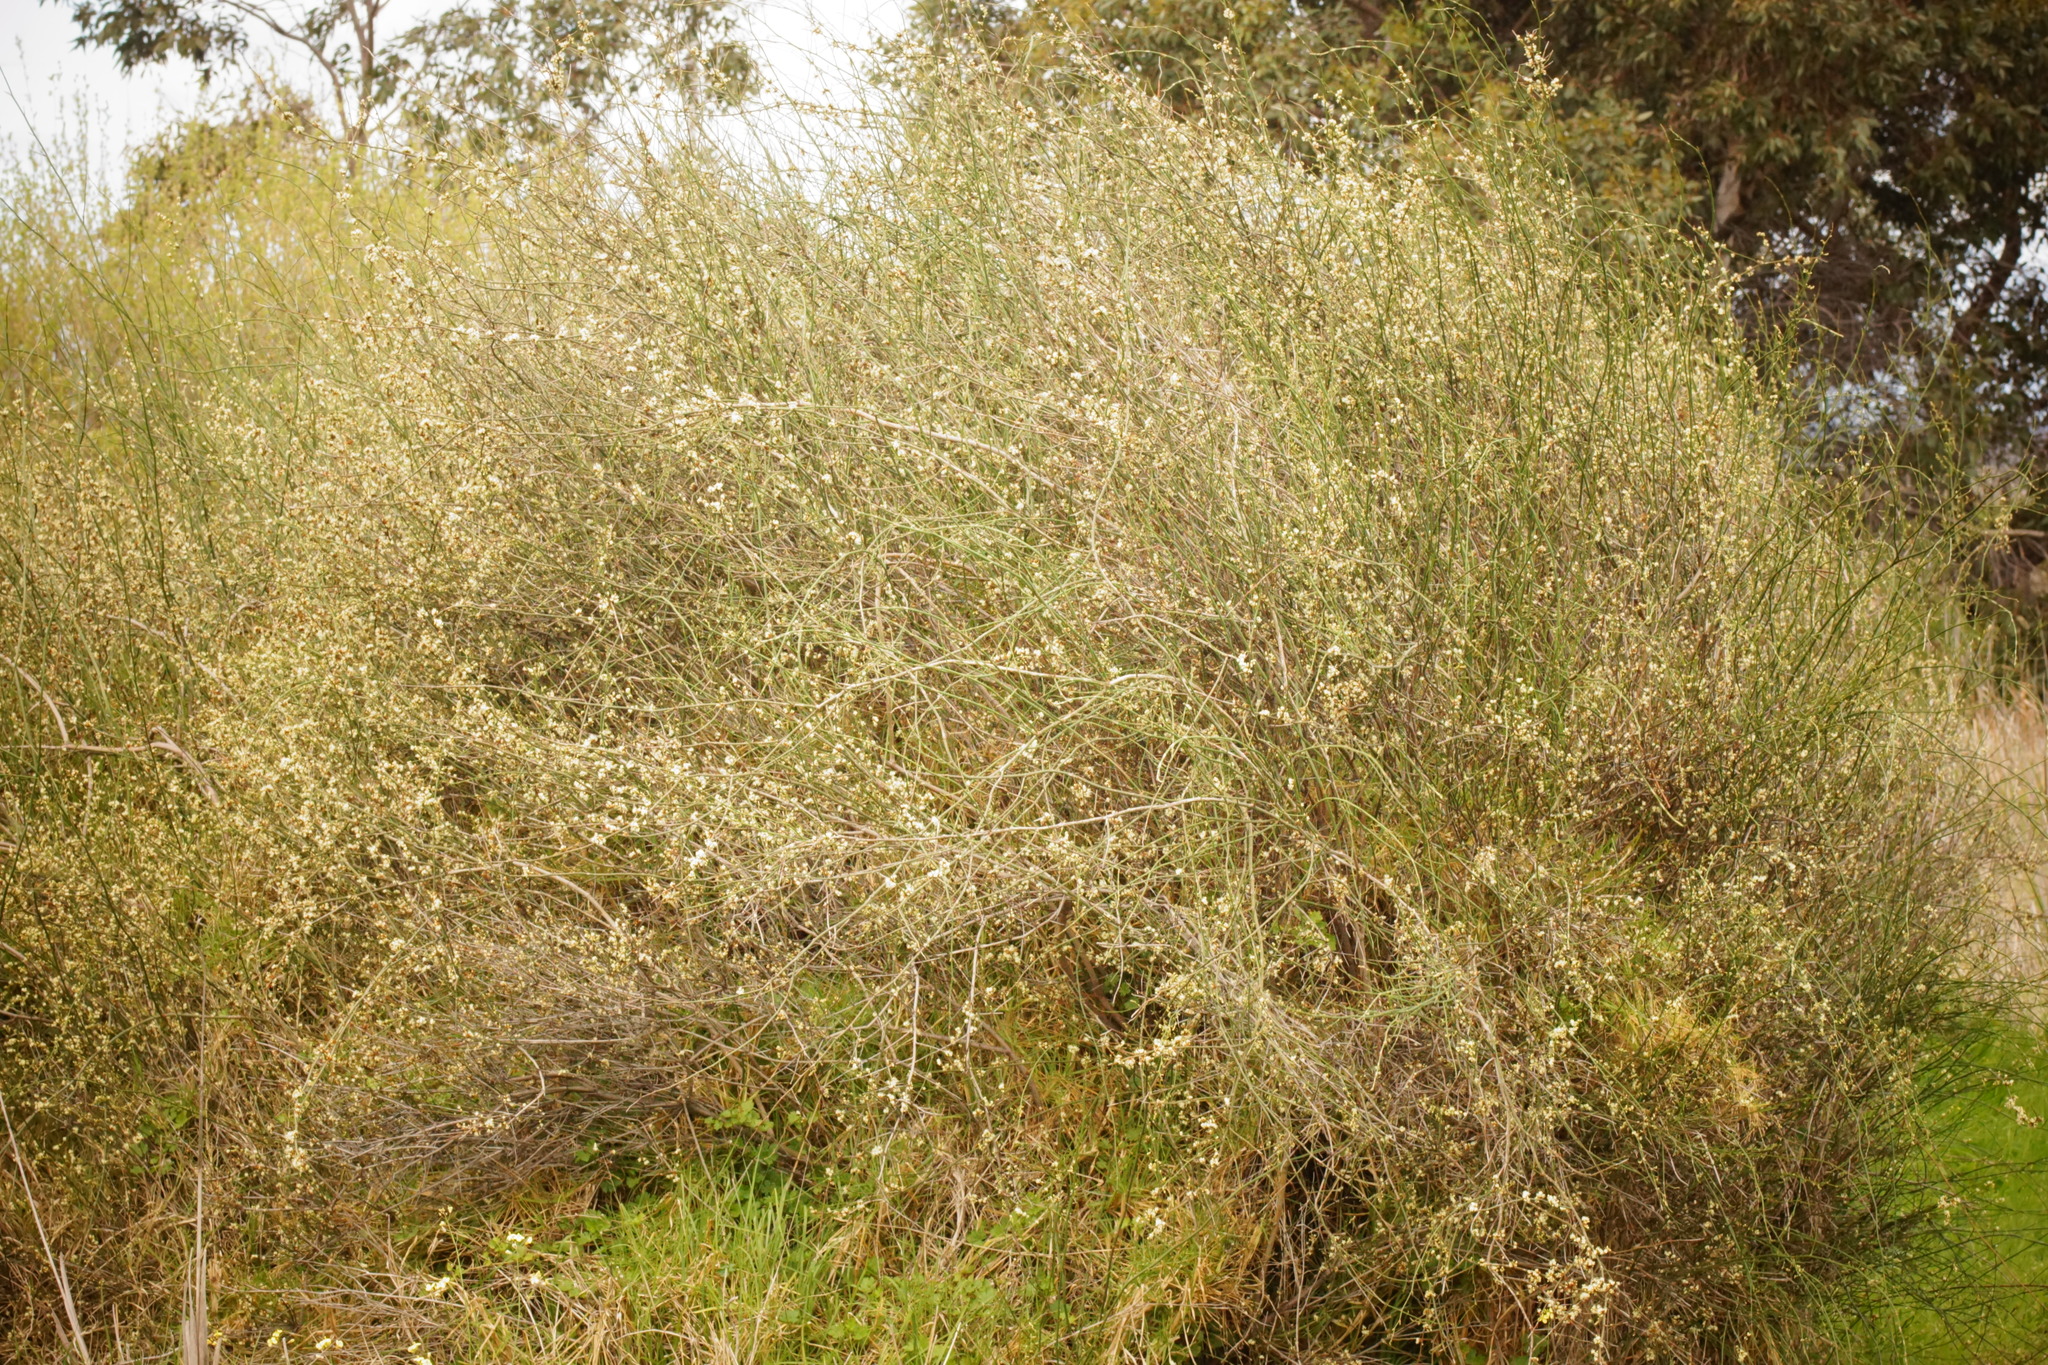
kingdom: Plantae
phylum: Tracheophyta
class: Magnoliopsida
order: Caryophyllales
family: Polygonaceae
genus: Duma
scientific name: Duma florulenta
